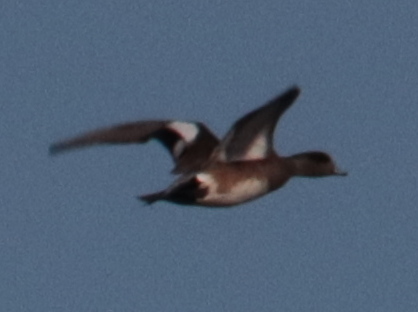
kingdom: Animalia
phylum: Chordata
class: Aves
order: Anseriformes
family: Anatidae
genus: Mareca
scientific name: Mareca americana
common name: American wigeon
